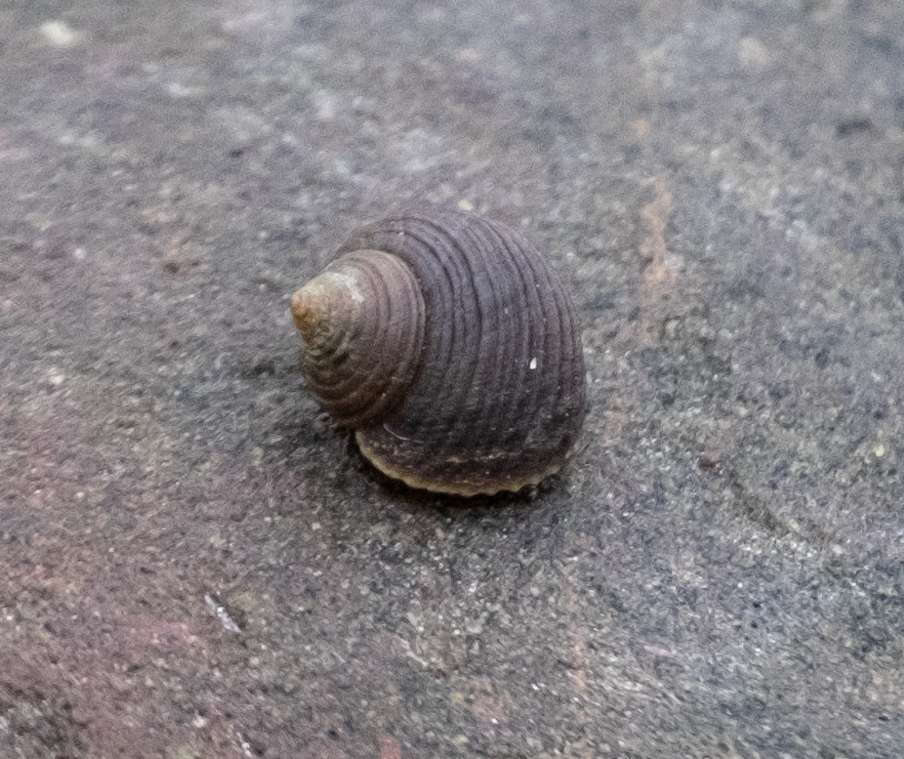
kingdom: Animalia
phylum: Mollusca
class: Gastropoda
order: Littorinimorpha
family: Littorinidae
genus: Littorina
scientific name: Littorina saxatilis
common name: Black-lined periwinkle
